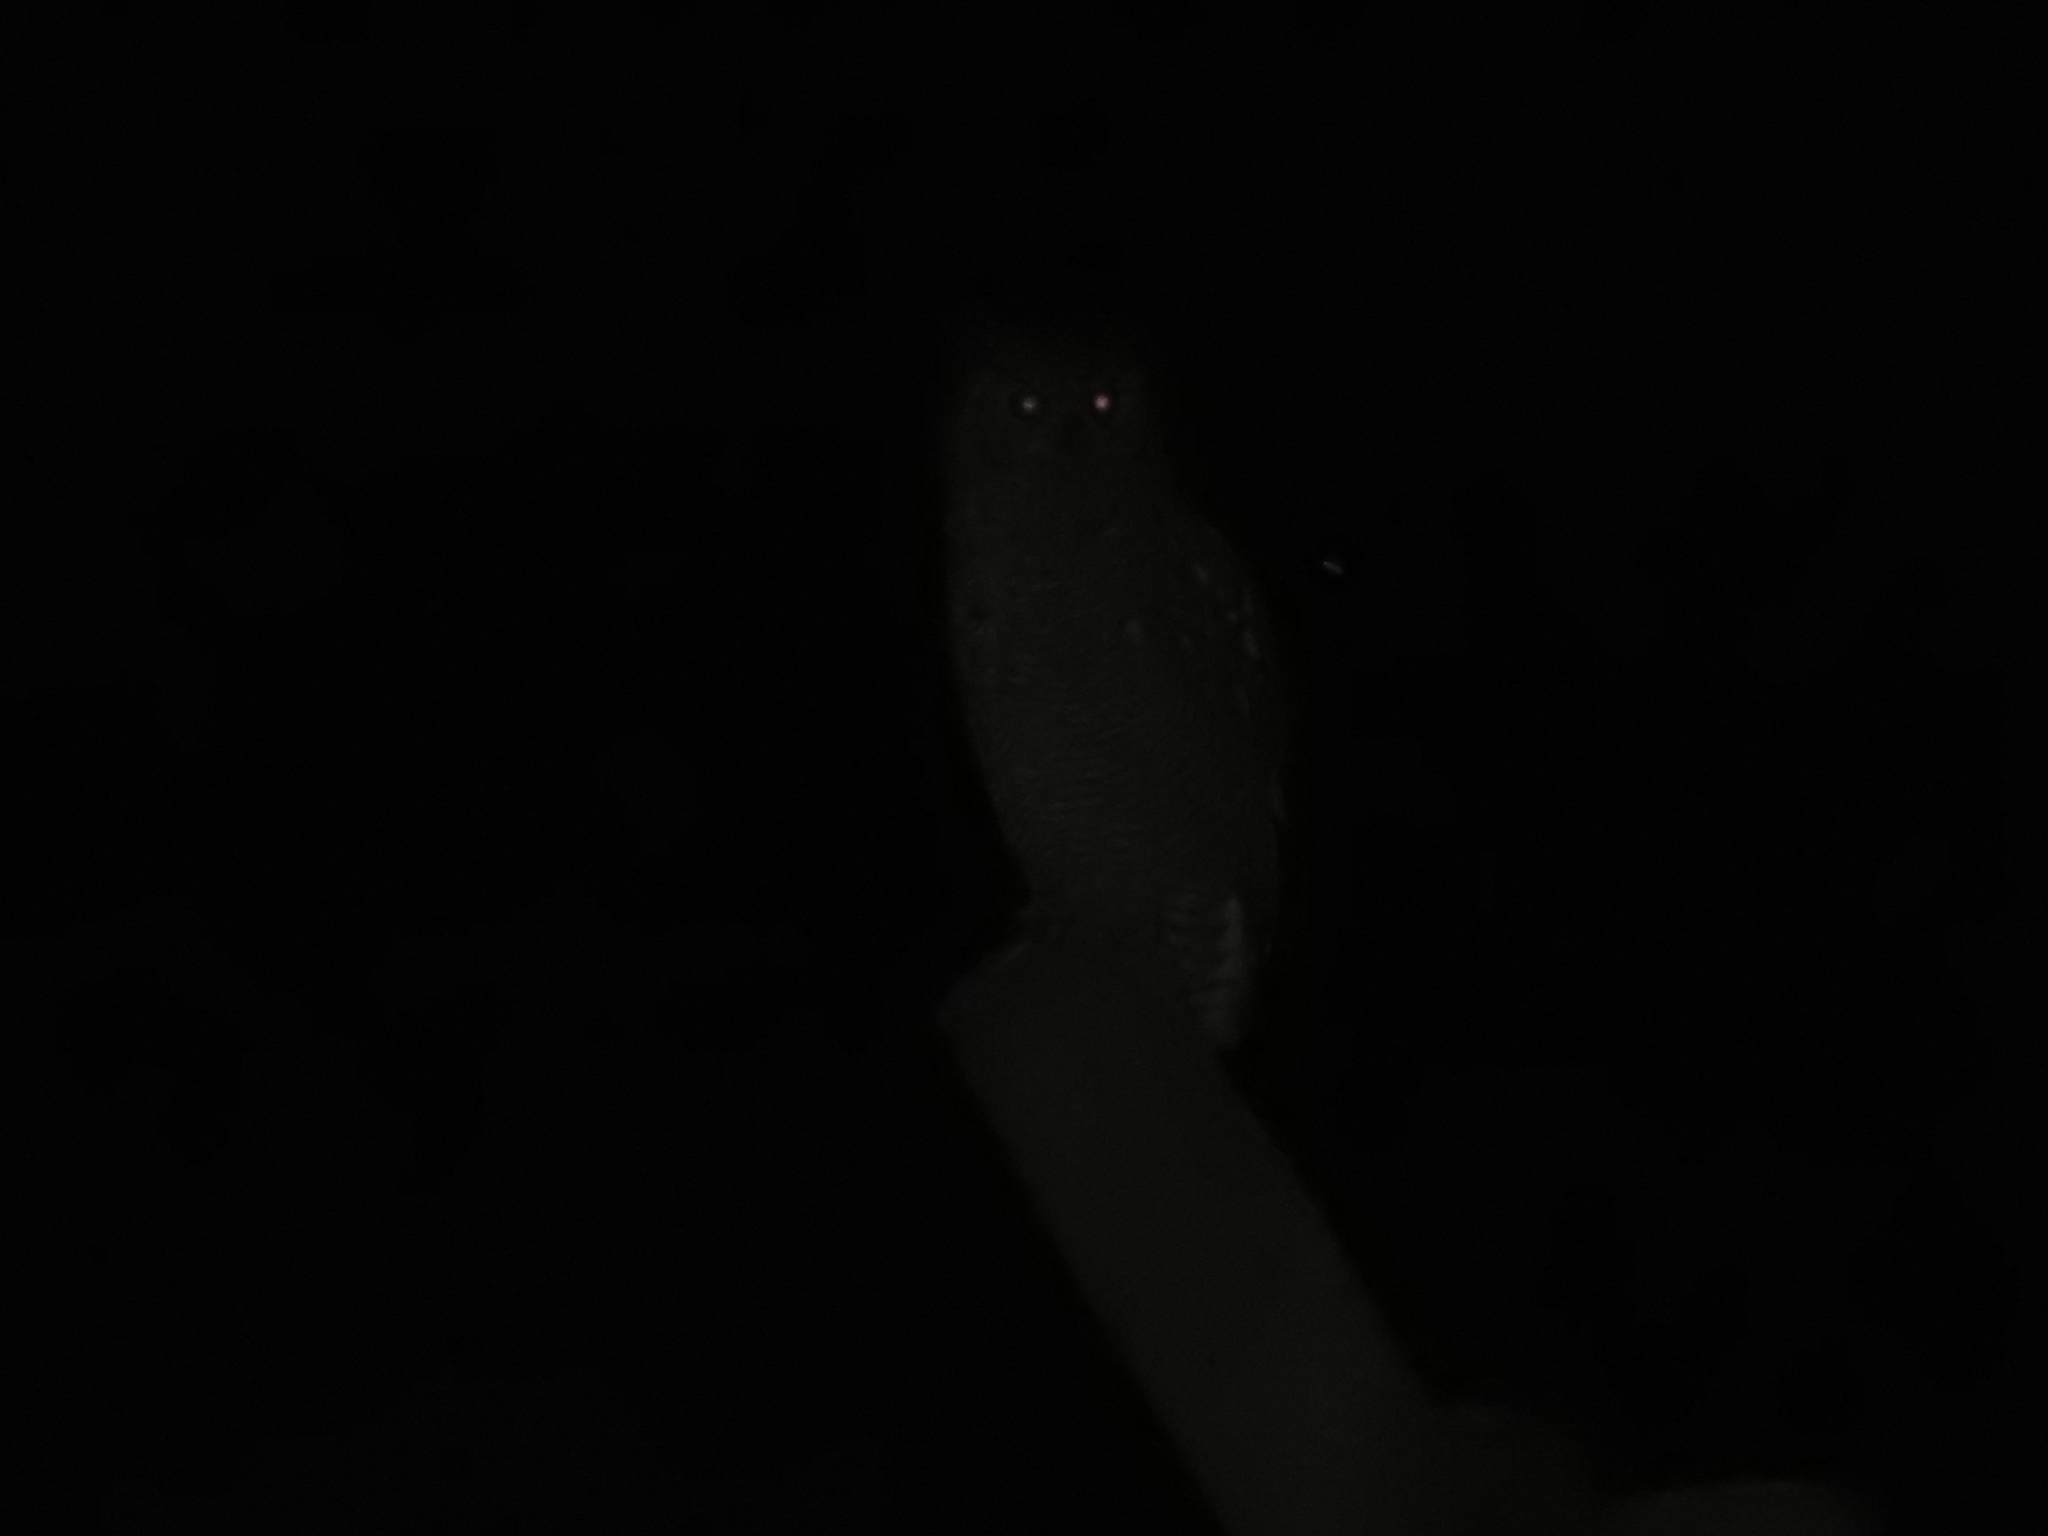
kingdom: Animalia
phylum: Chordata
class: Aves
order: Strigiformes
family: Strigidae
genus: Bubo
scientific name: Bubo virginianus
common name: Great horned owl
